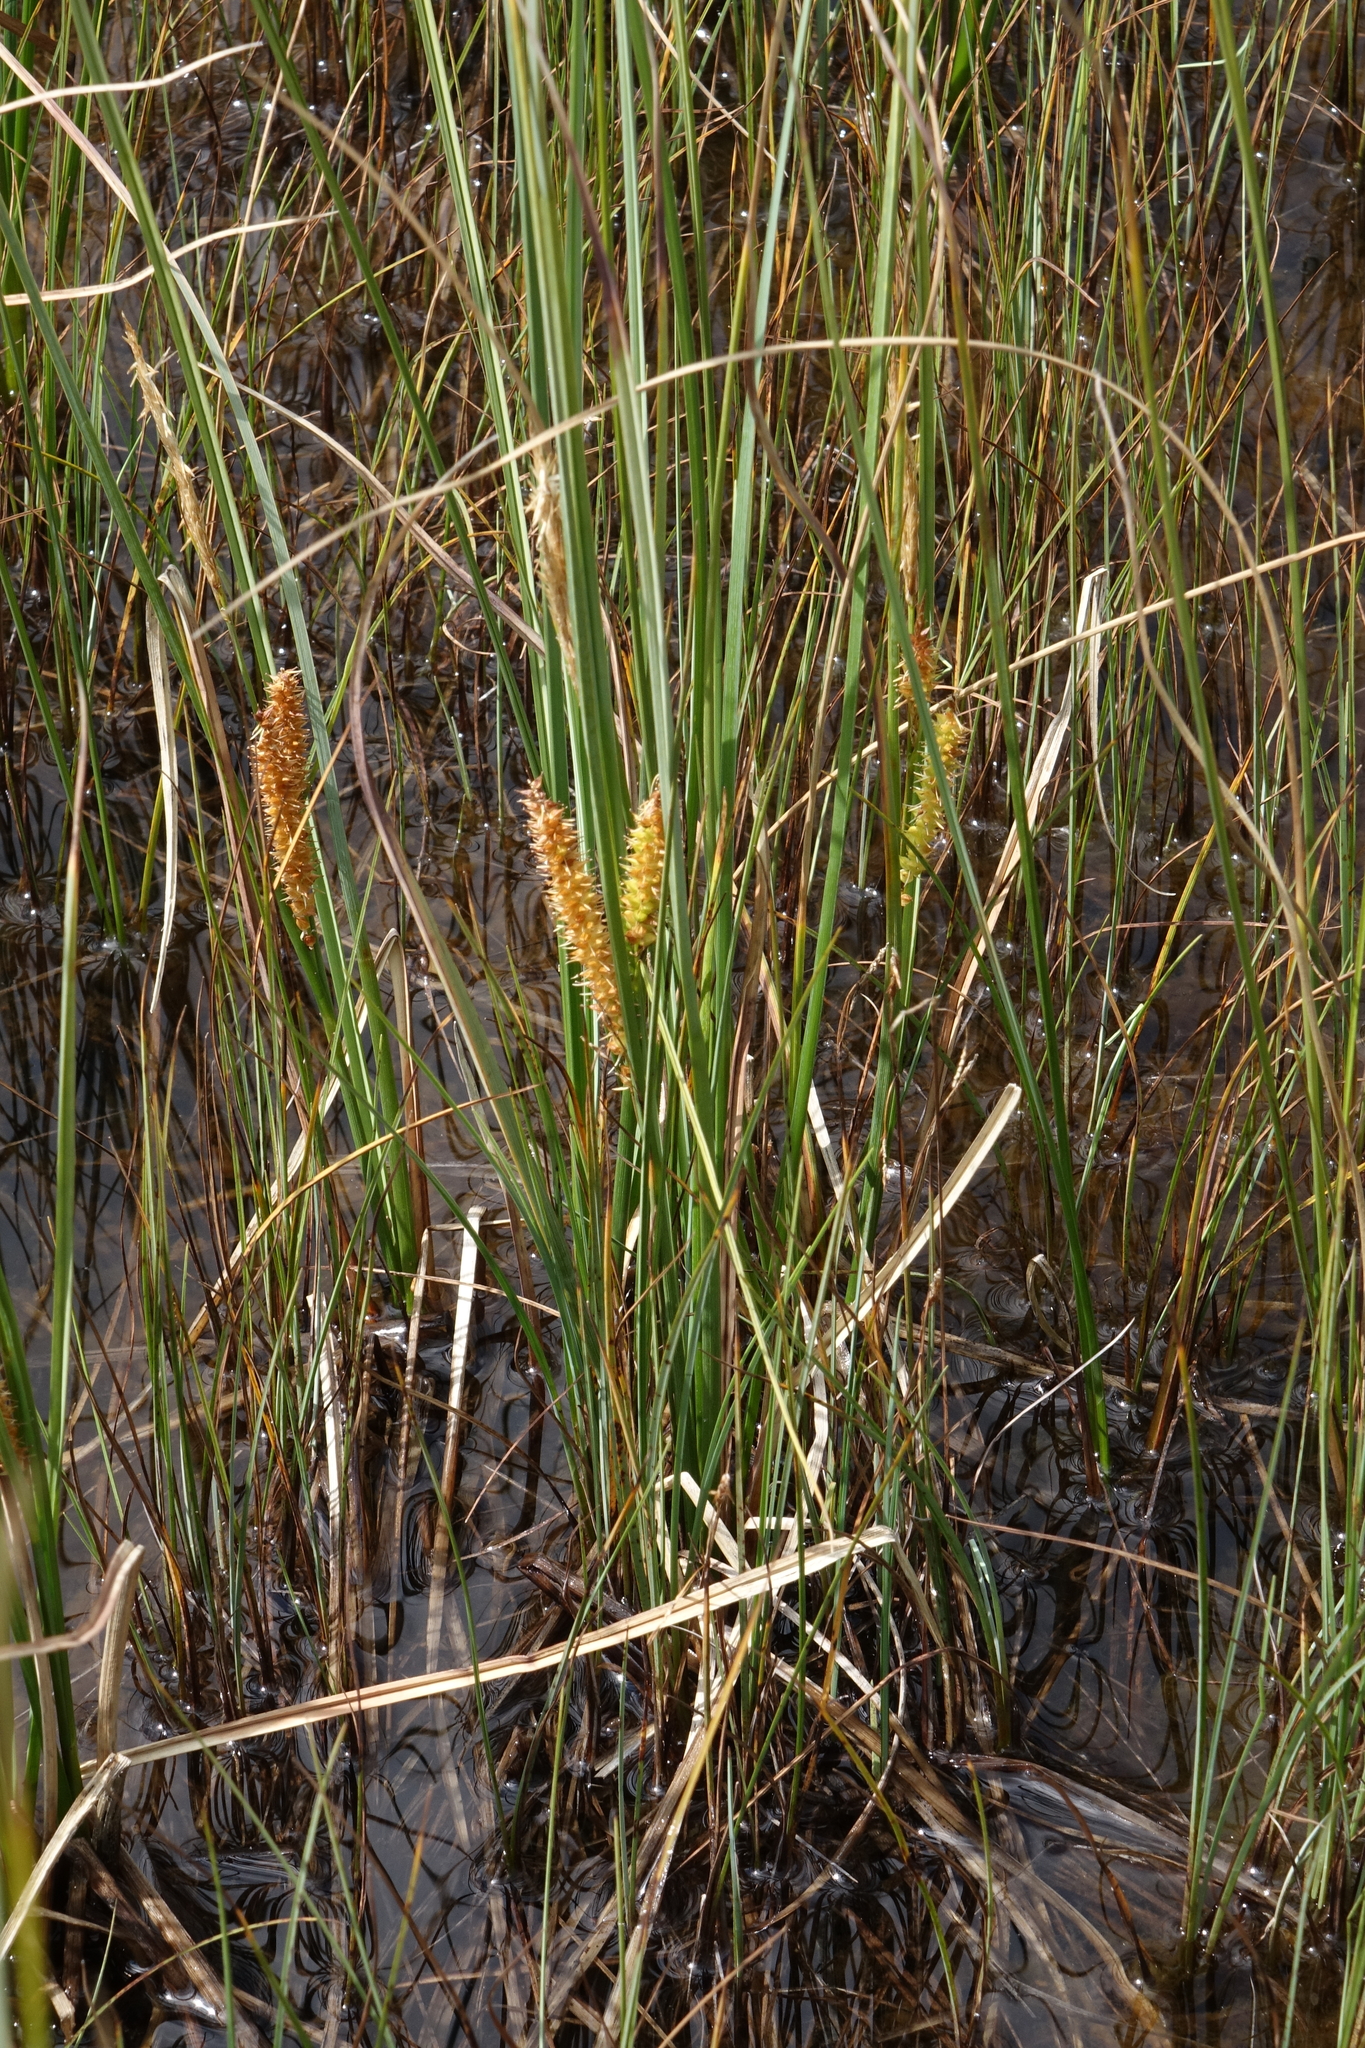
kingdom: Plantae
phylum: Tracheophyta
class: Liliopsida
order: Poales
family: Cyperaceae
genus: Carex
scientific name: Carex rostrata
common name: Bottle sedge
